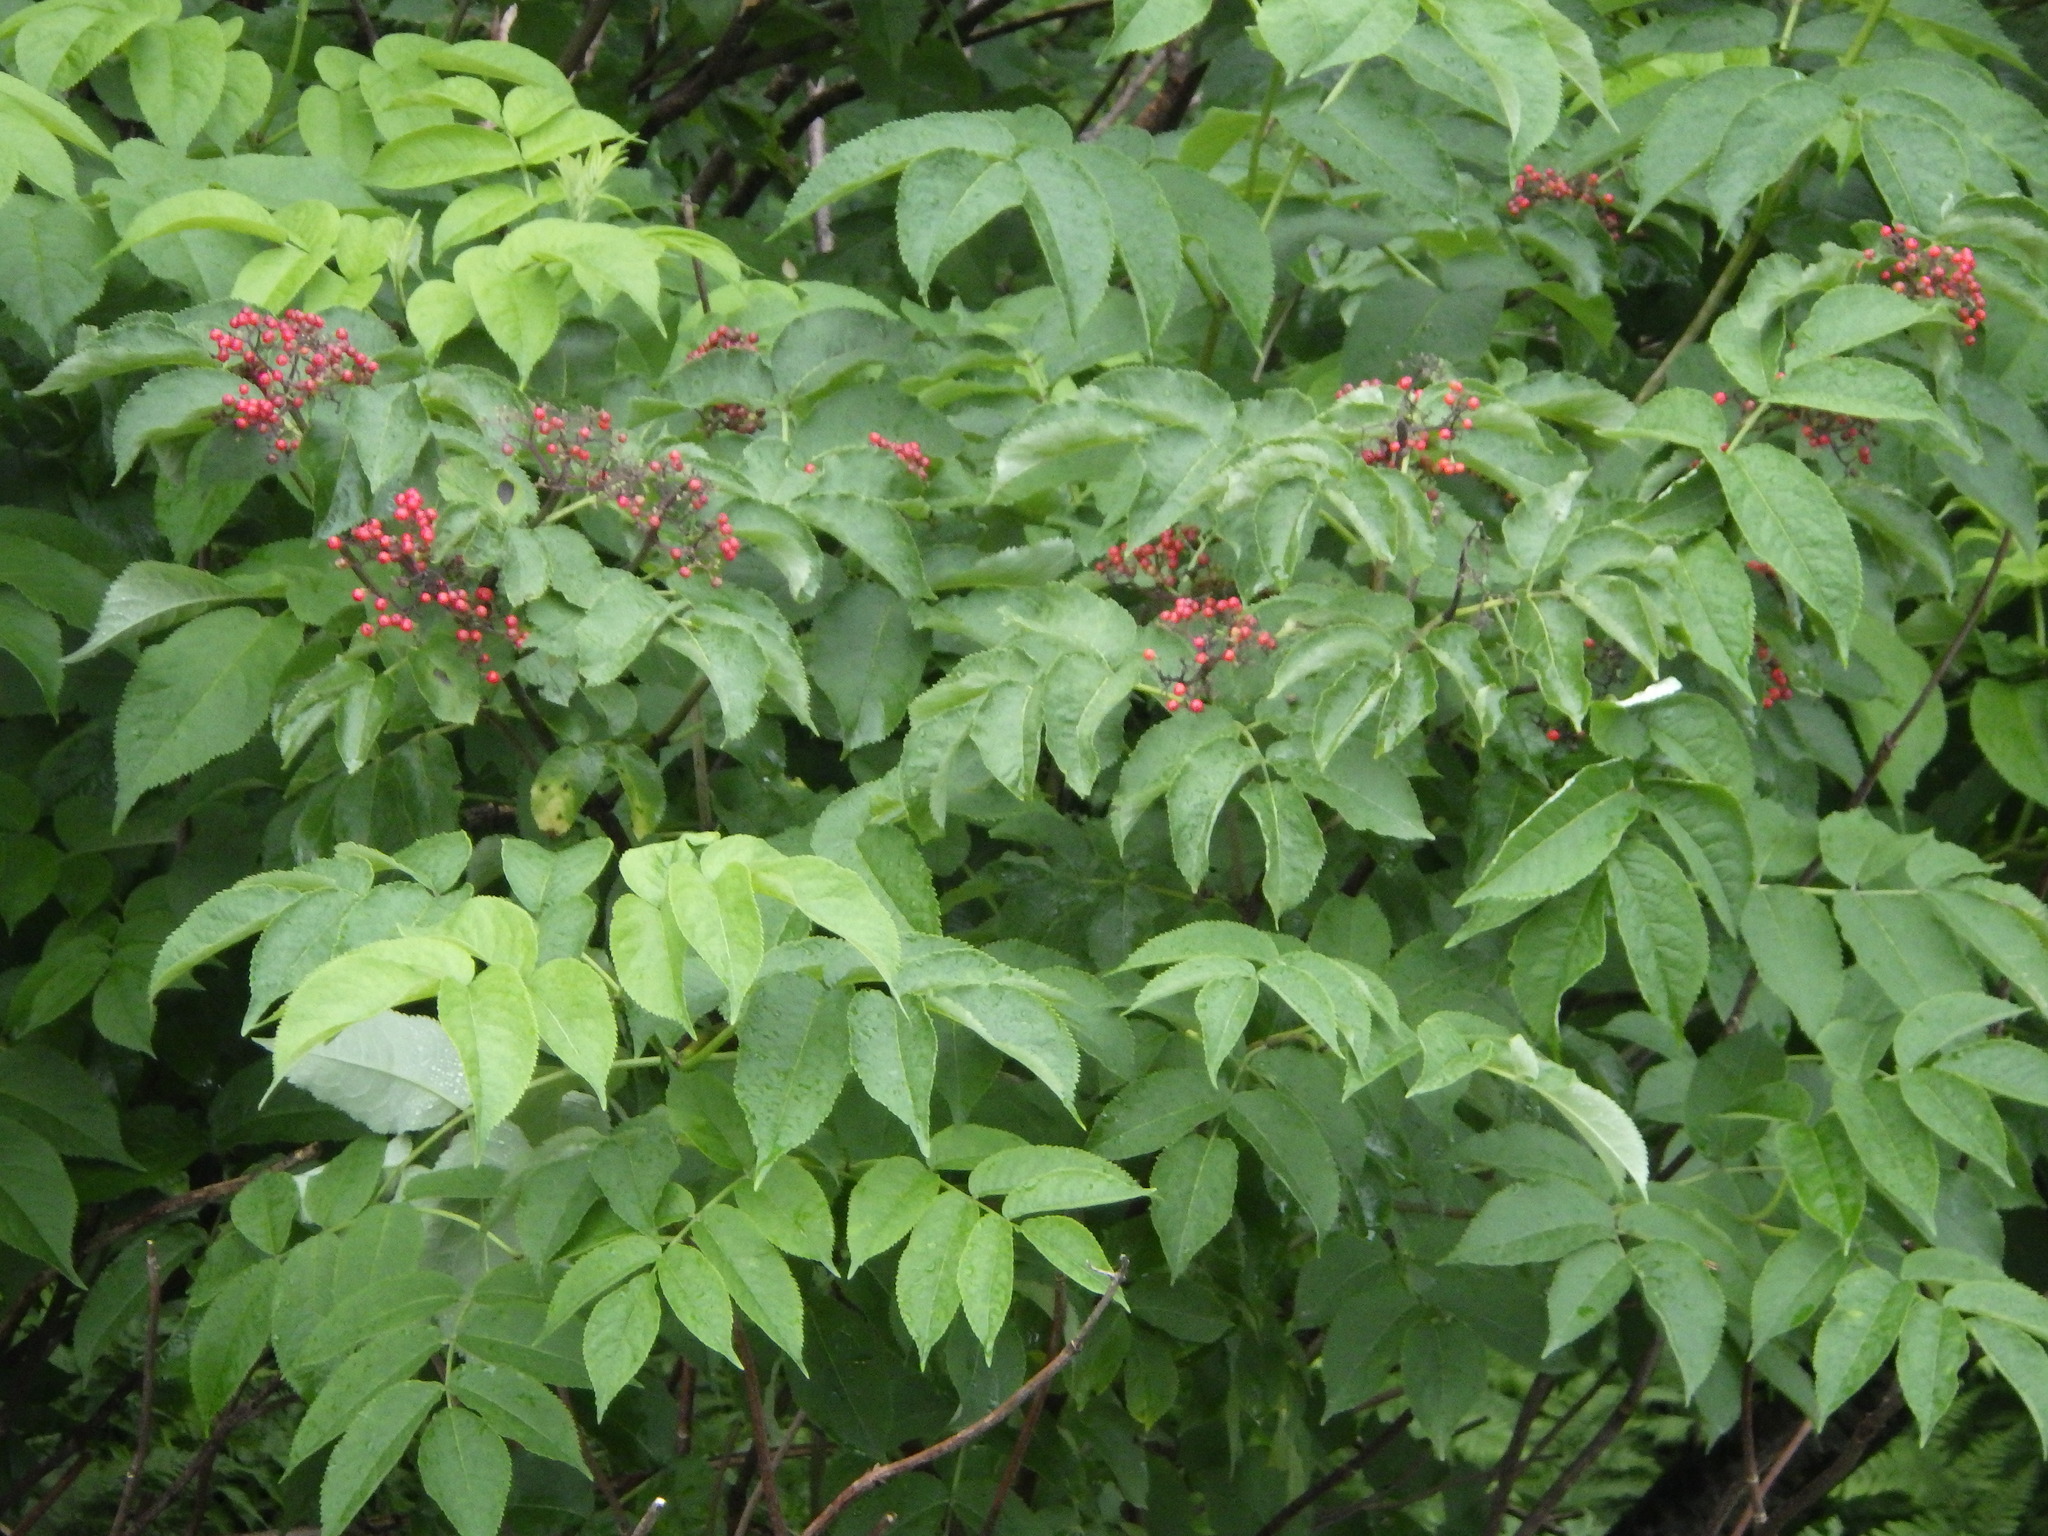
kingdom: Plantae
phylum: Tracheophyta
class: Magnoliopsida
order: Dipsacales
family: Viburnaceae
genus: Sambucus
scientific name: Sambucus racemosa
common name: Red-berried elder
